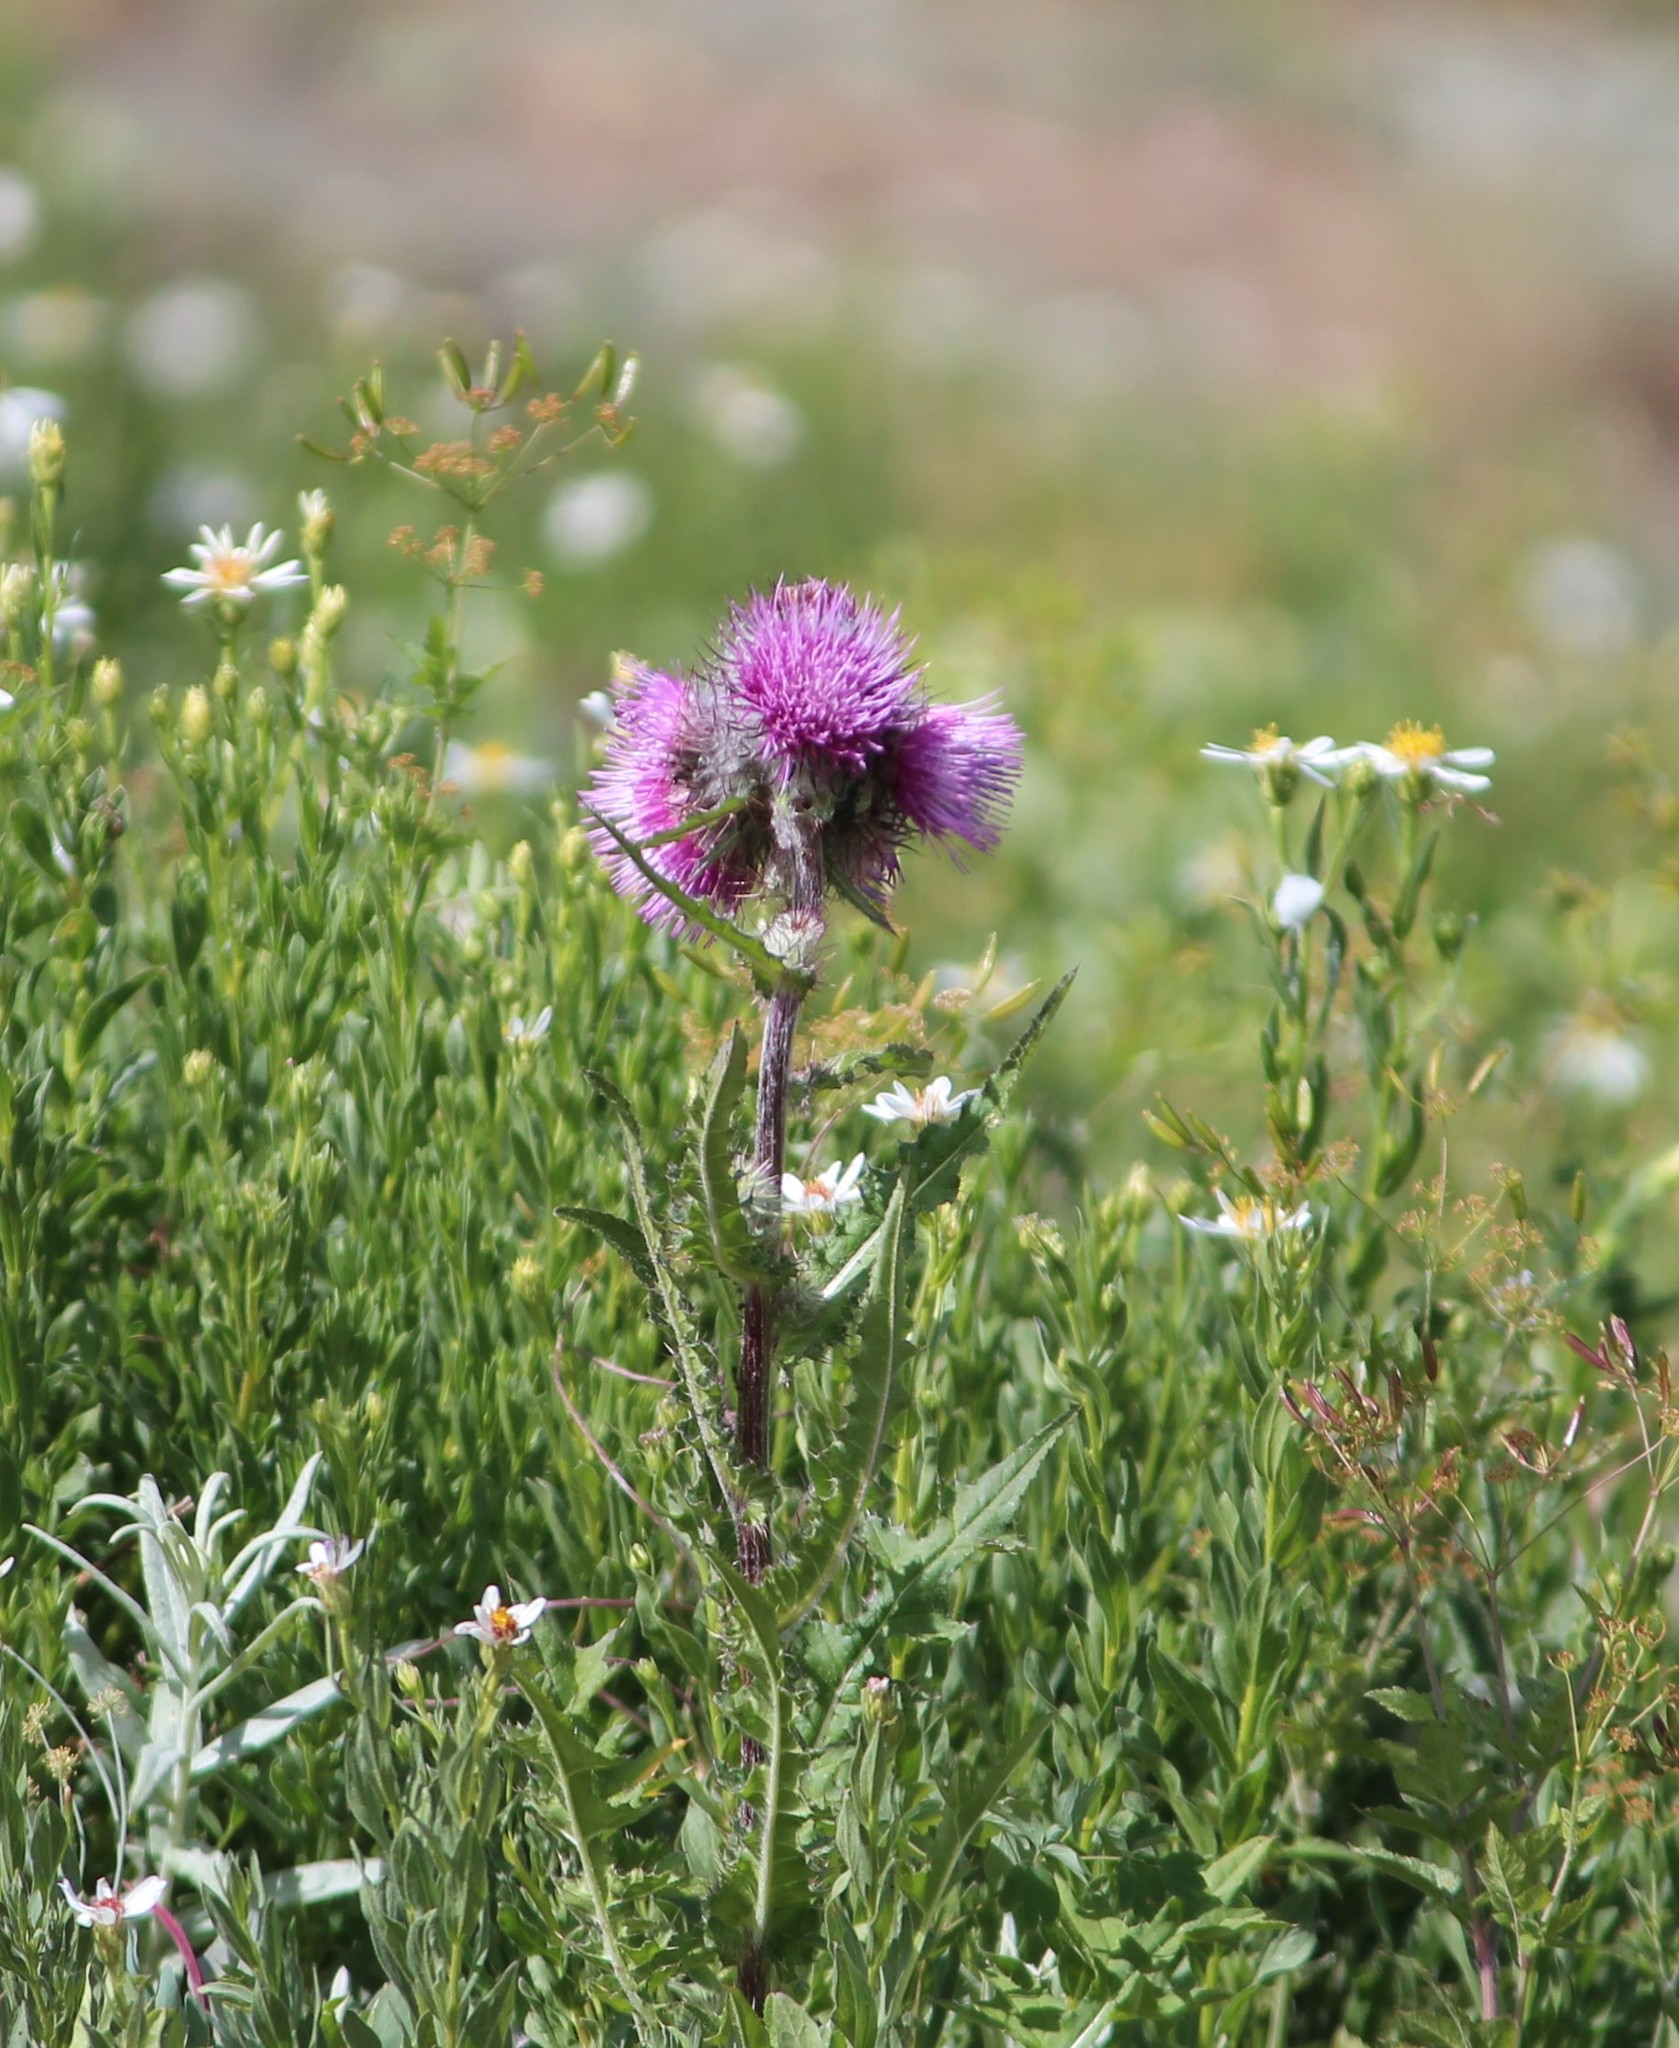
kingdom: Plantae
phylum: Tracheophyta
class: Magnoliopsida
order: Asterales
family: Asteraceae
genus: Cirsium
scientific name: Cirsium edule
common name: Indian thistle
